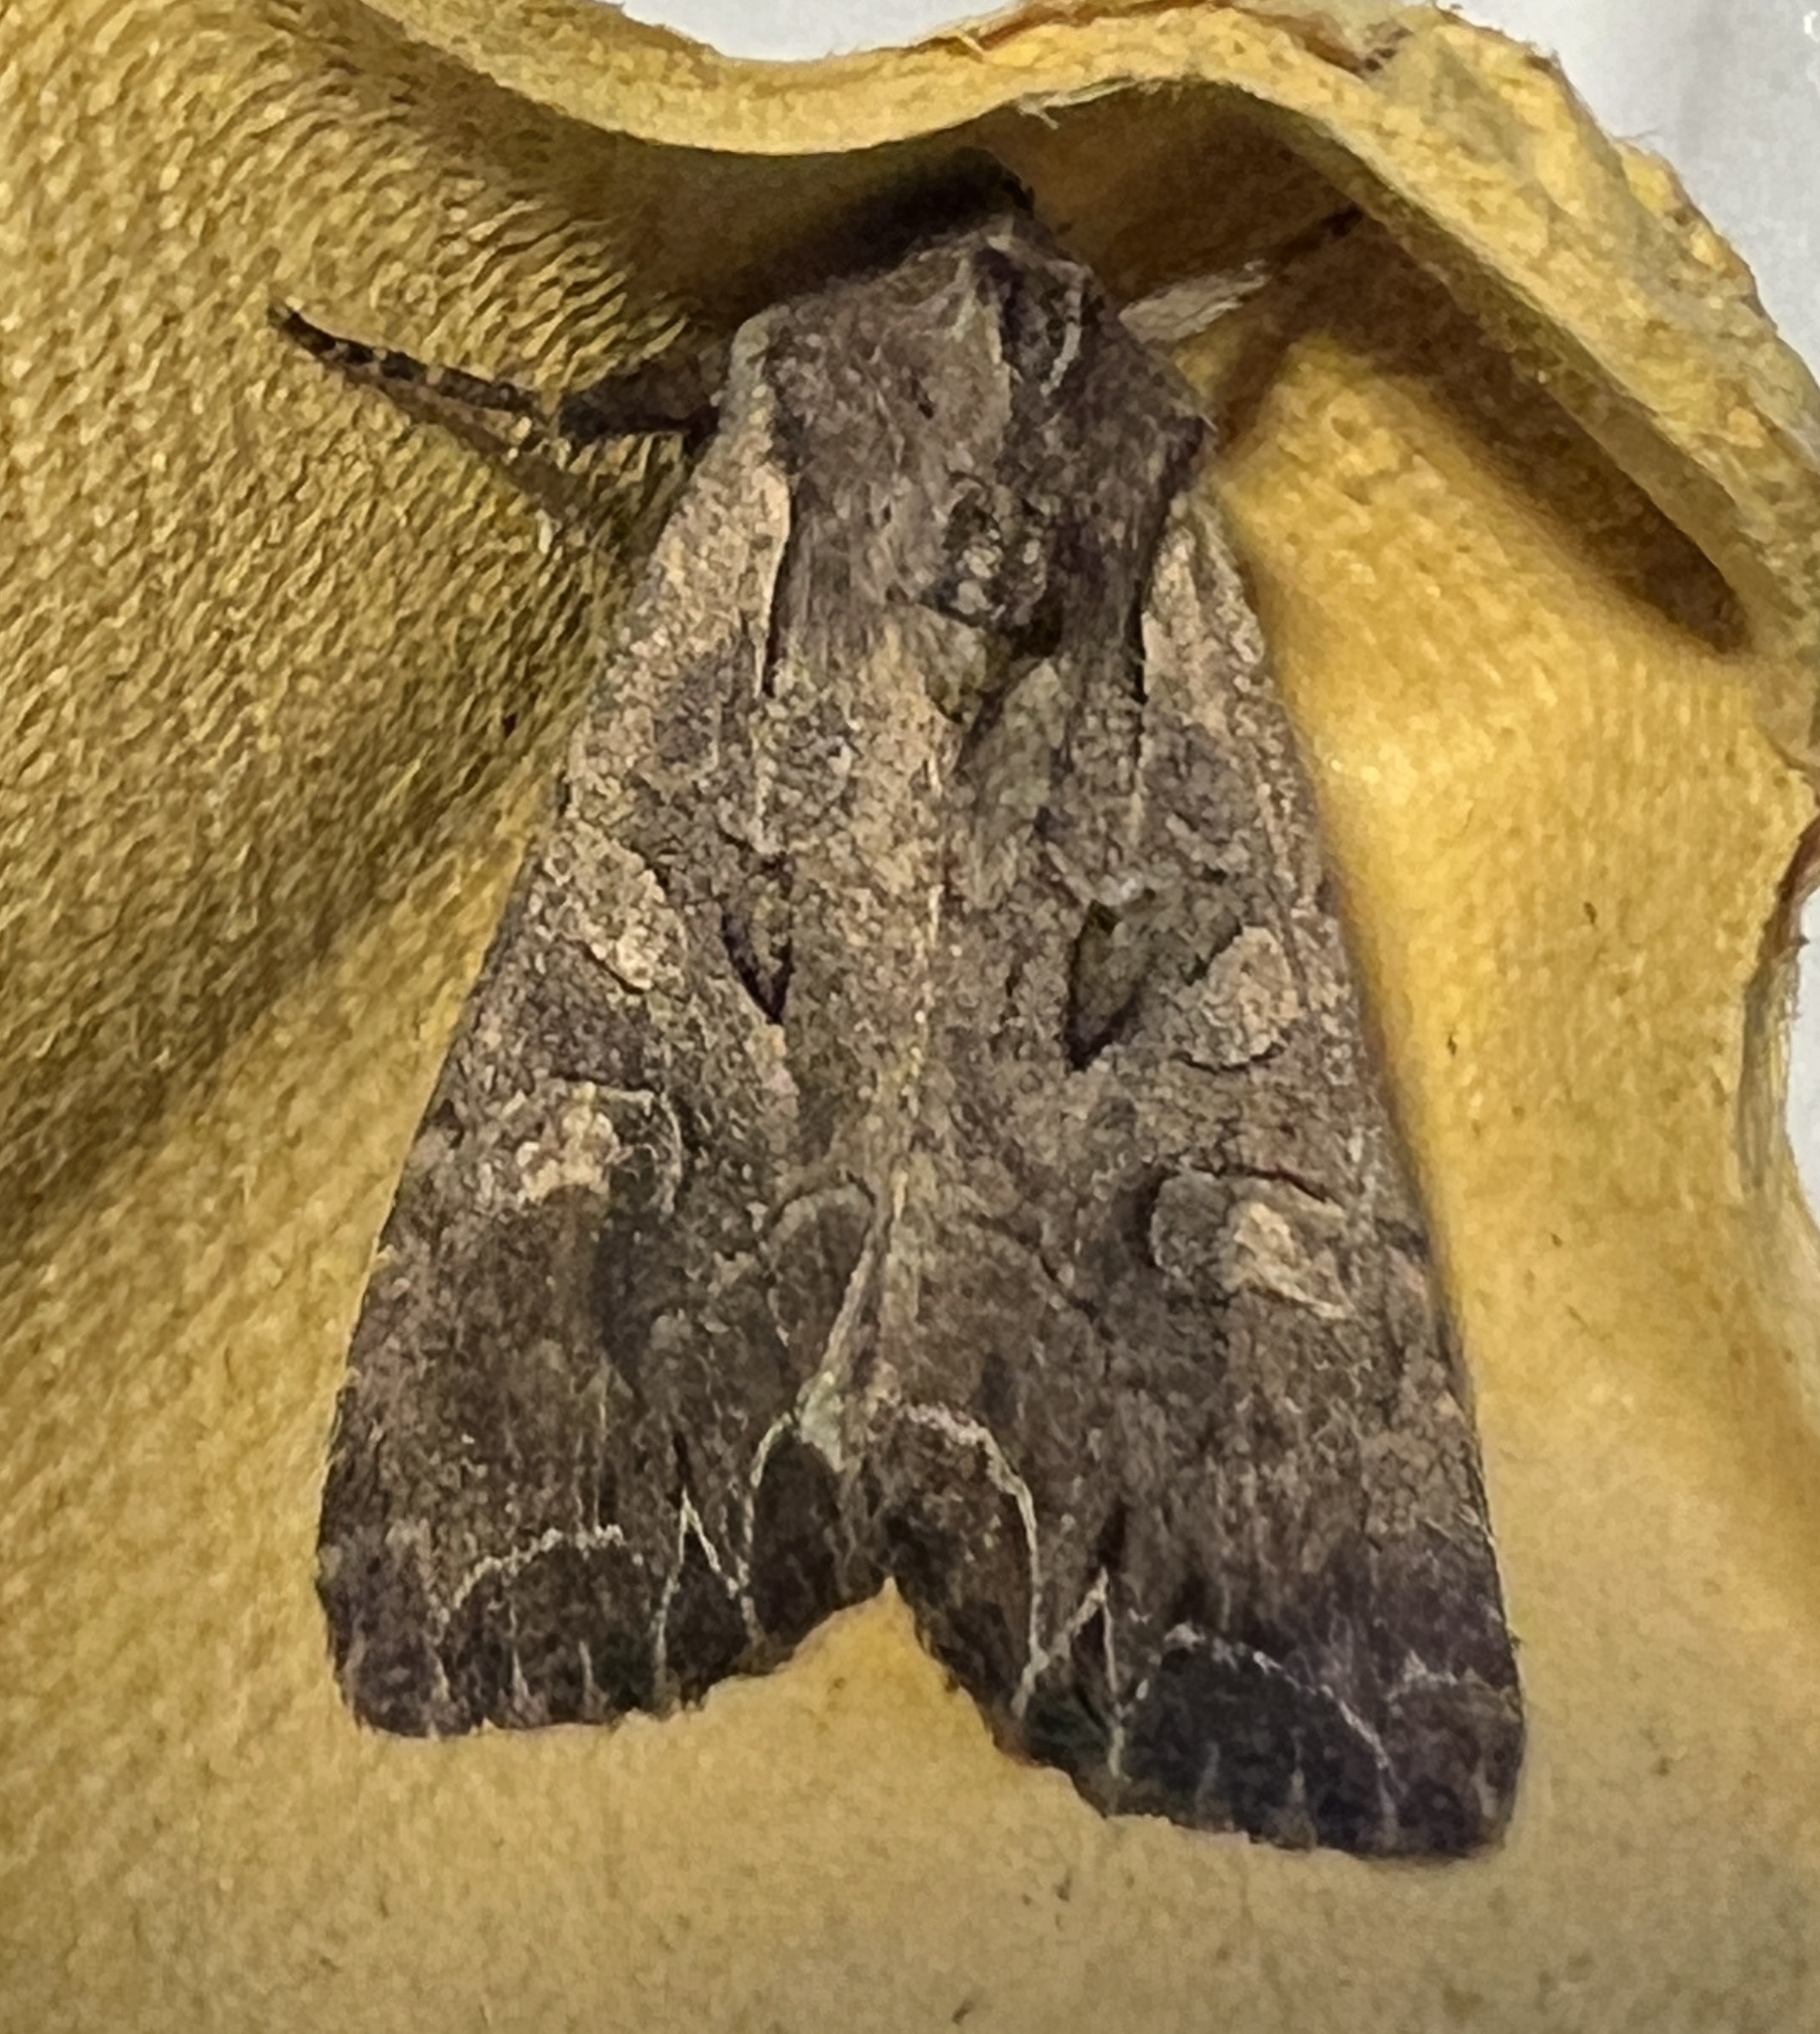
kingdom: Animalia
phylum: Arthropoda
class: Insecta
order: Lepidoptera
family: Noctuidae
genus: Lacanobia
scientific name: Lacanobia suasa
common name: Dog's tooth
